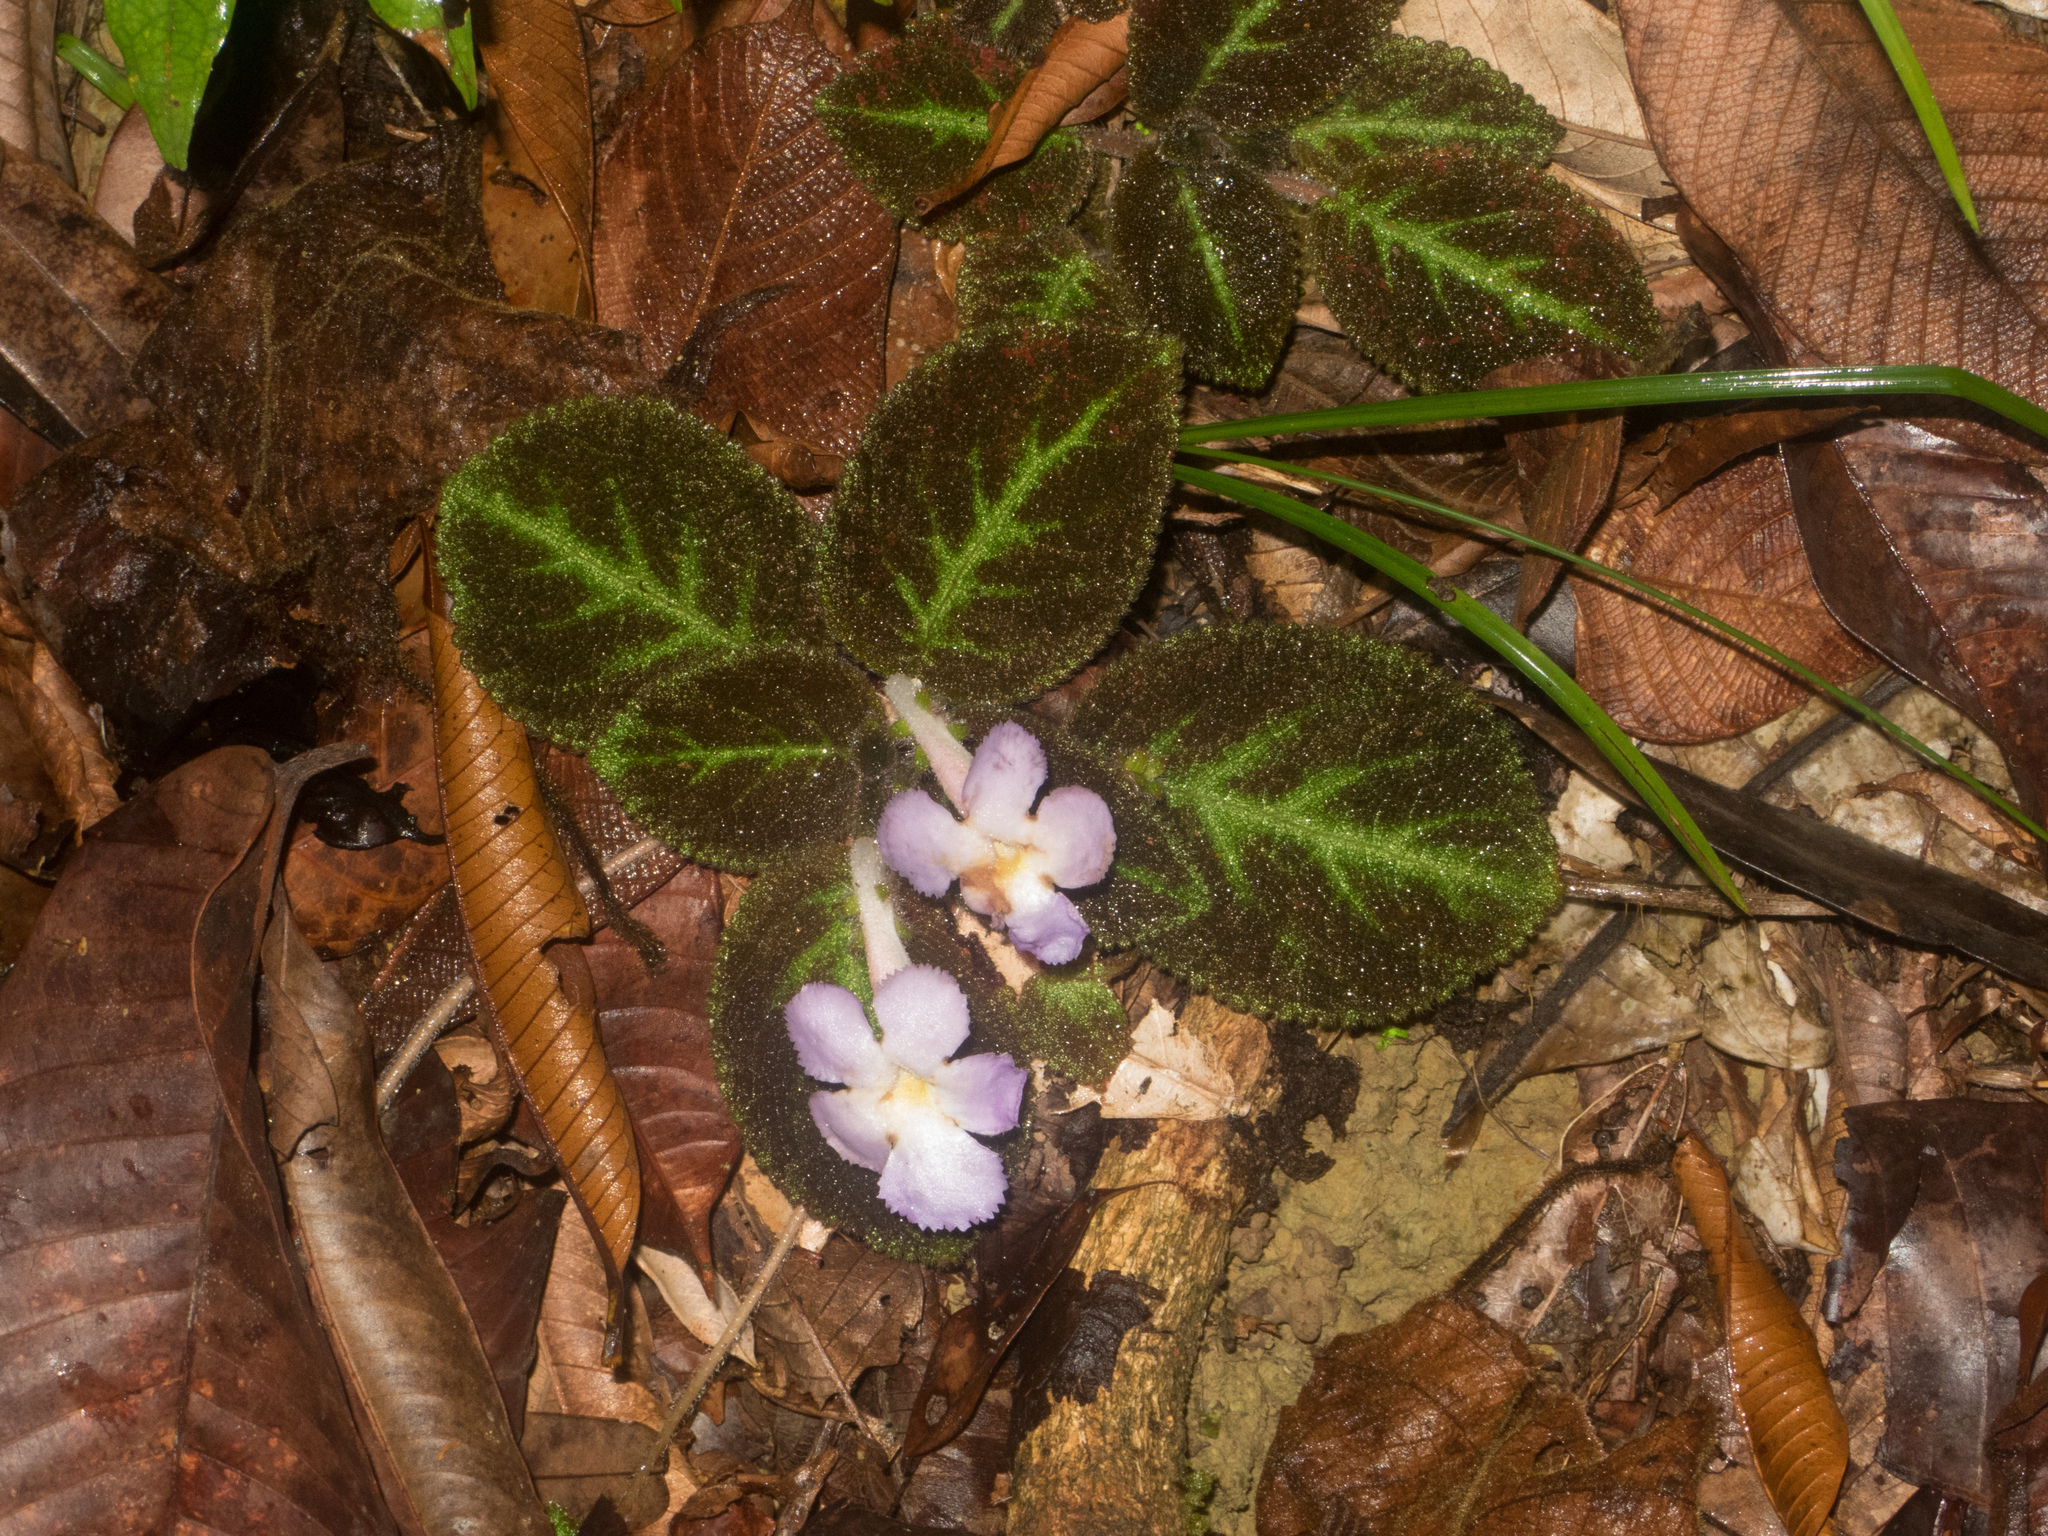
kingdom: Plantae
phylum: Tracheophyta
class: Magnoliopsida
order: Lamiales
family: Gesneriaceae
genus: Episcia
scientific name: Episcia lilacina
